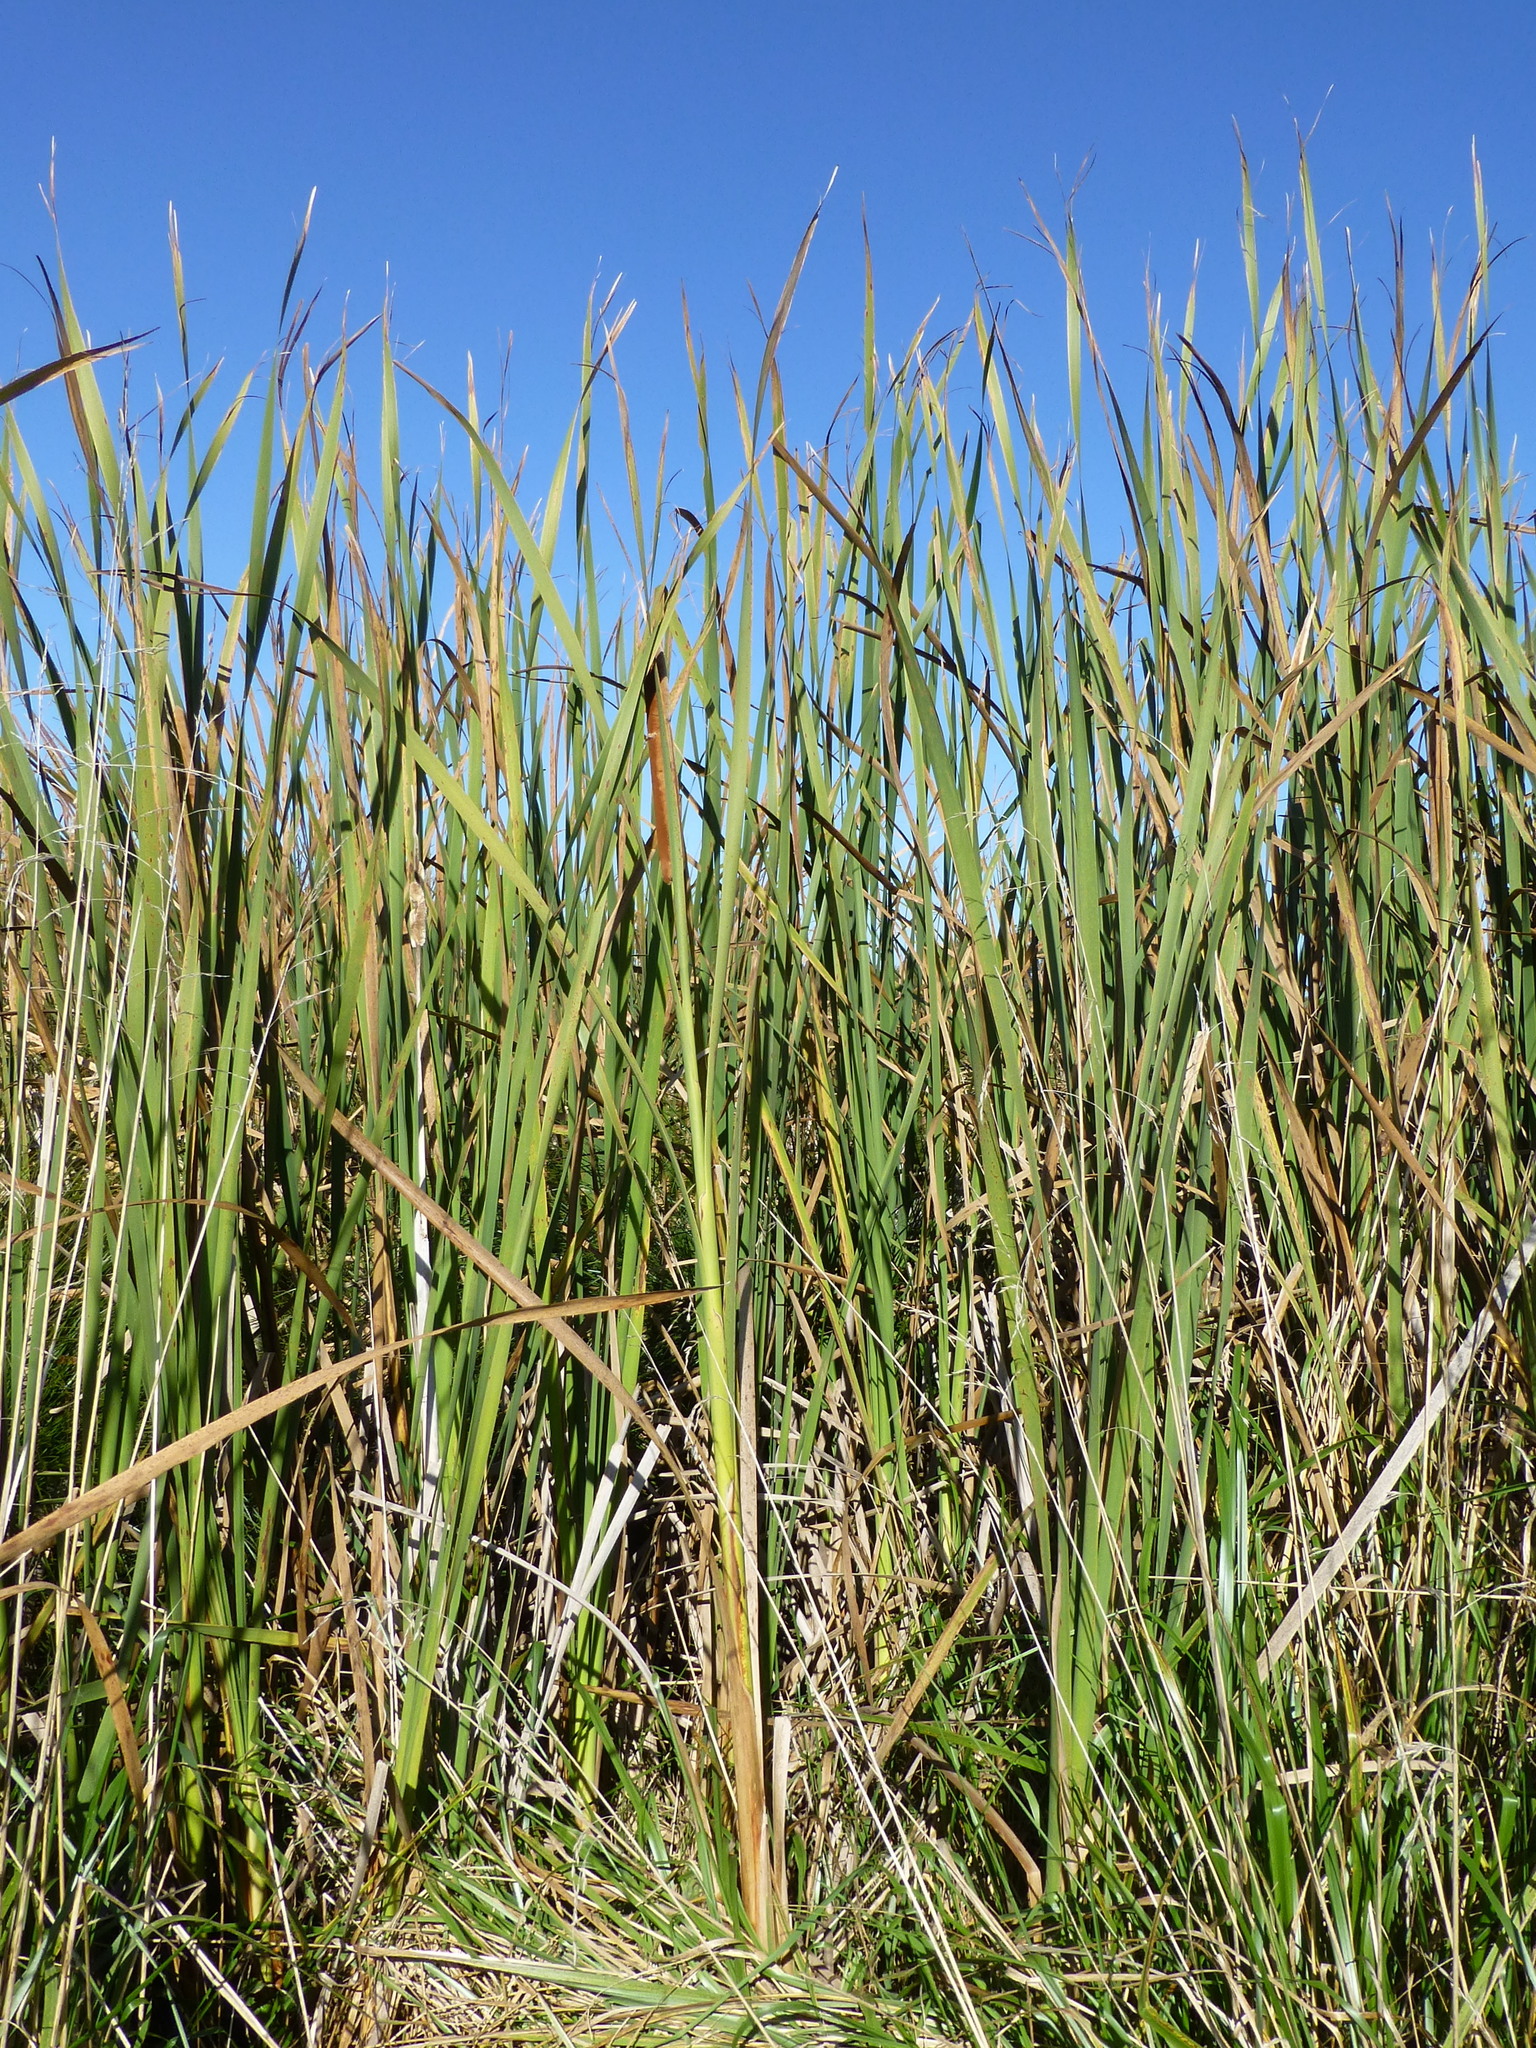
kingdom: Plantae
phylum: Tracheophyta
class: Liliopsida
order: Poales
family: Typhaceae
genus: Typha
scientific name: Typha orientalis
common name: Bullrush
